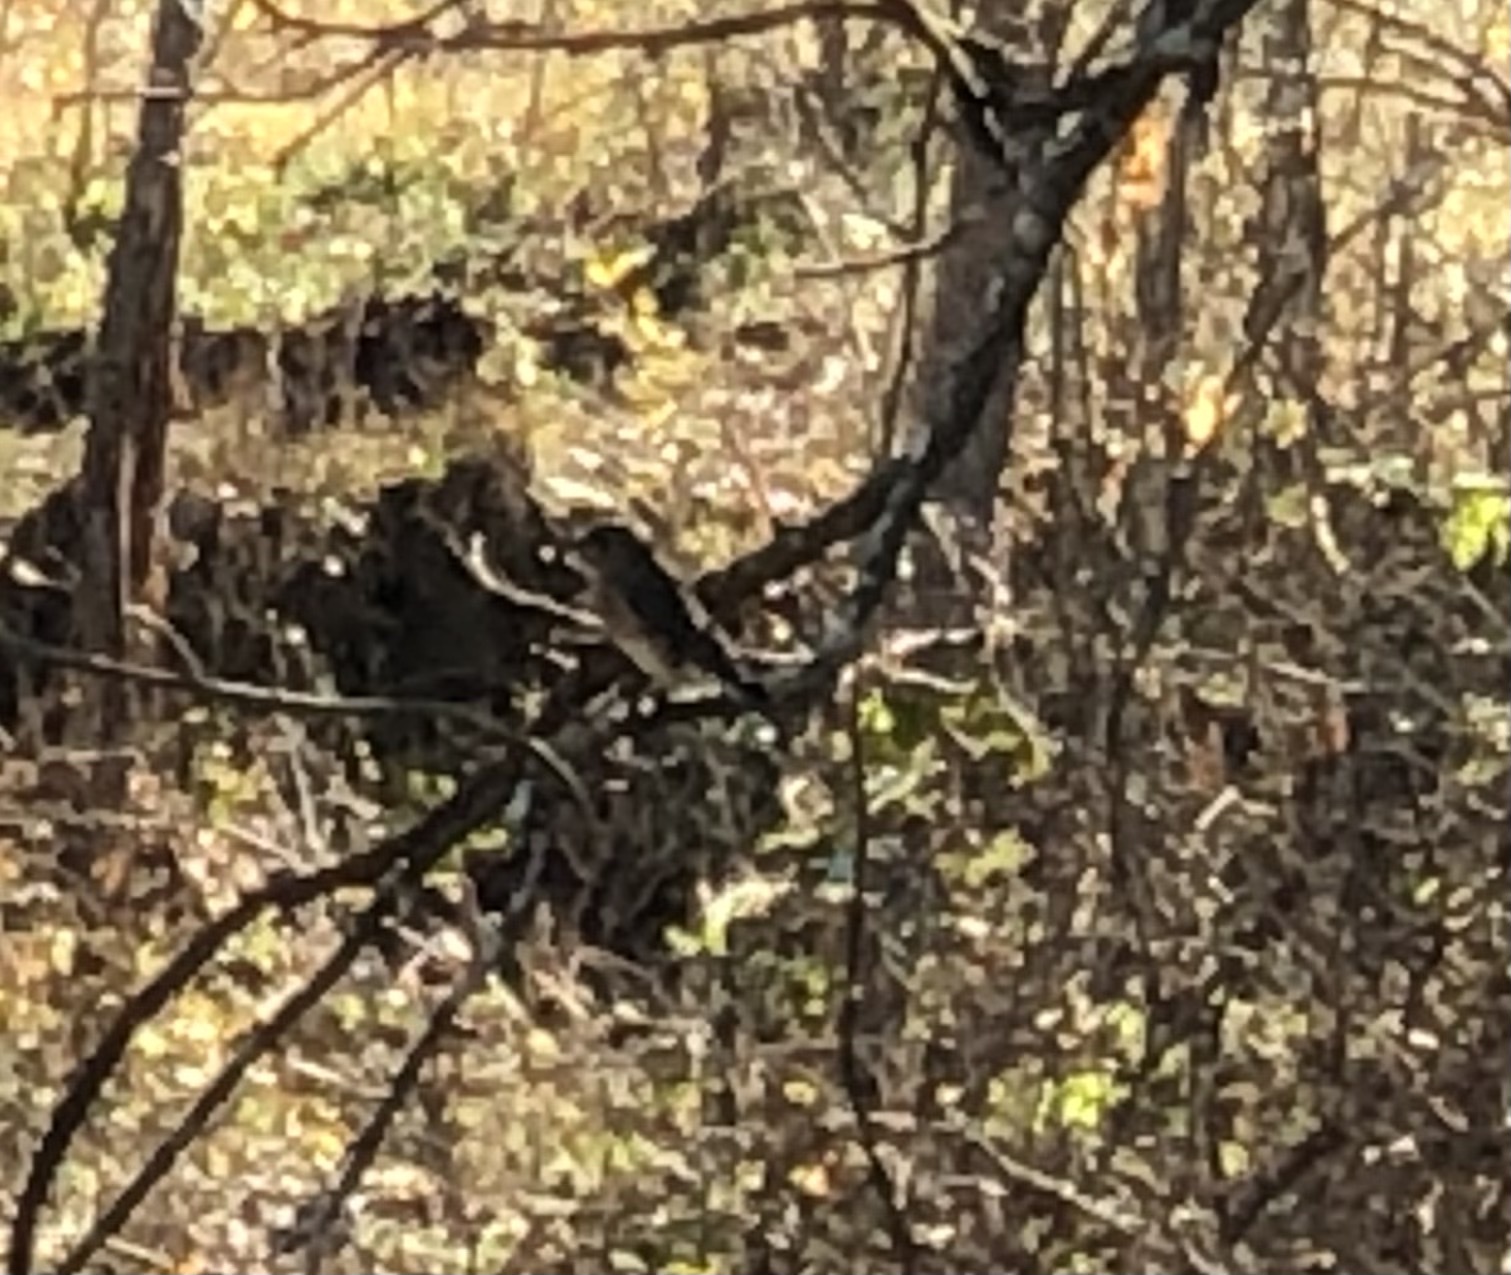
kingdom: Animalia
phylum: Chordata
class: Aves
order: Passeriformes
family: Turdidae
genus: Sialia
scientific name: Sialia sialis
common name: Eastern bluebird
